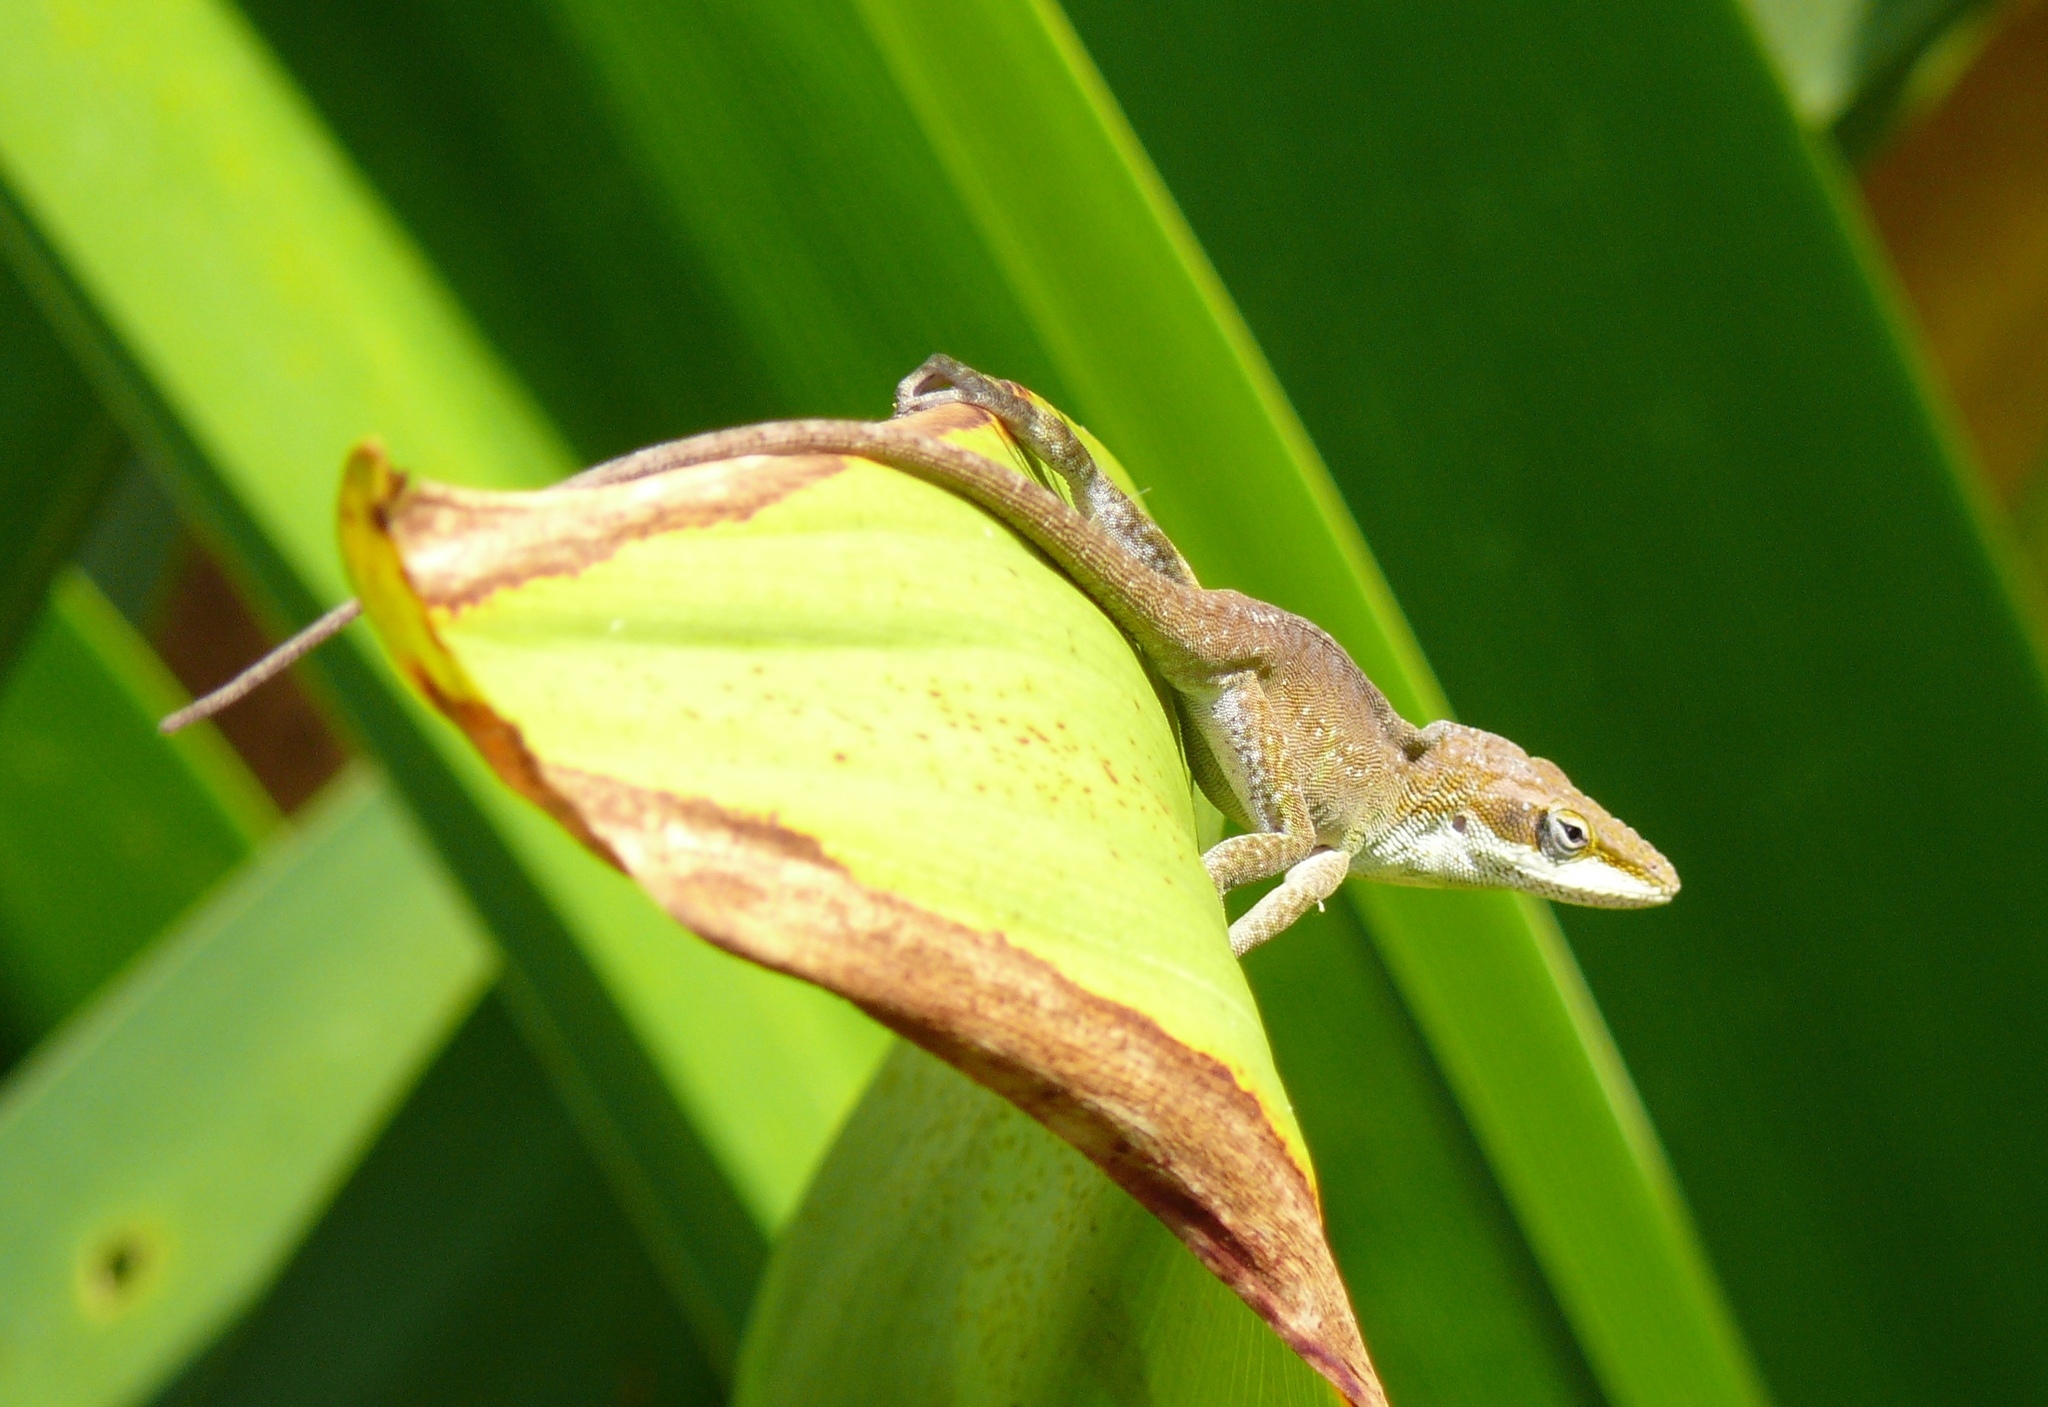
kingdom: Animalia
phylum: Chordata
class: Squamata
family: Dactyloidae
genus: Anolis
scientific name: Anolis carolinensis
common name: Green anole
